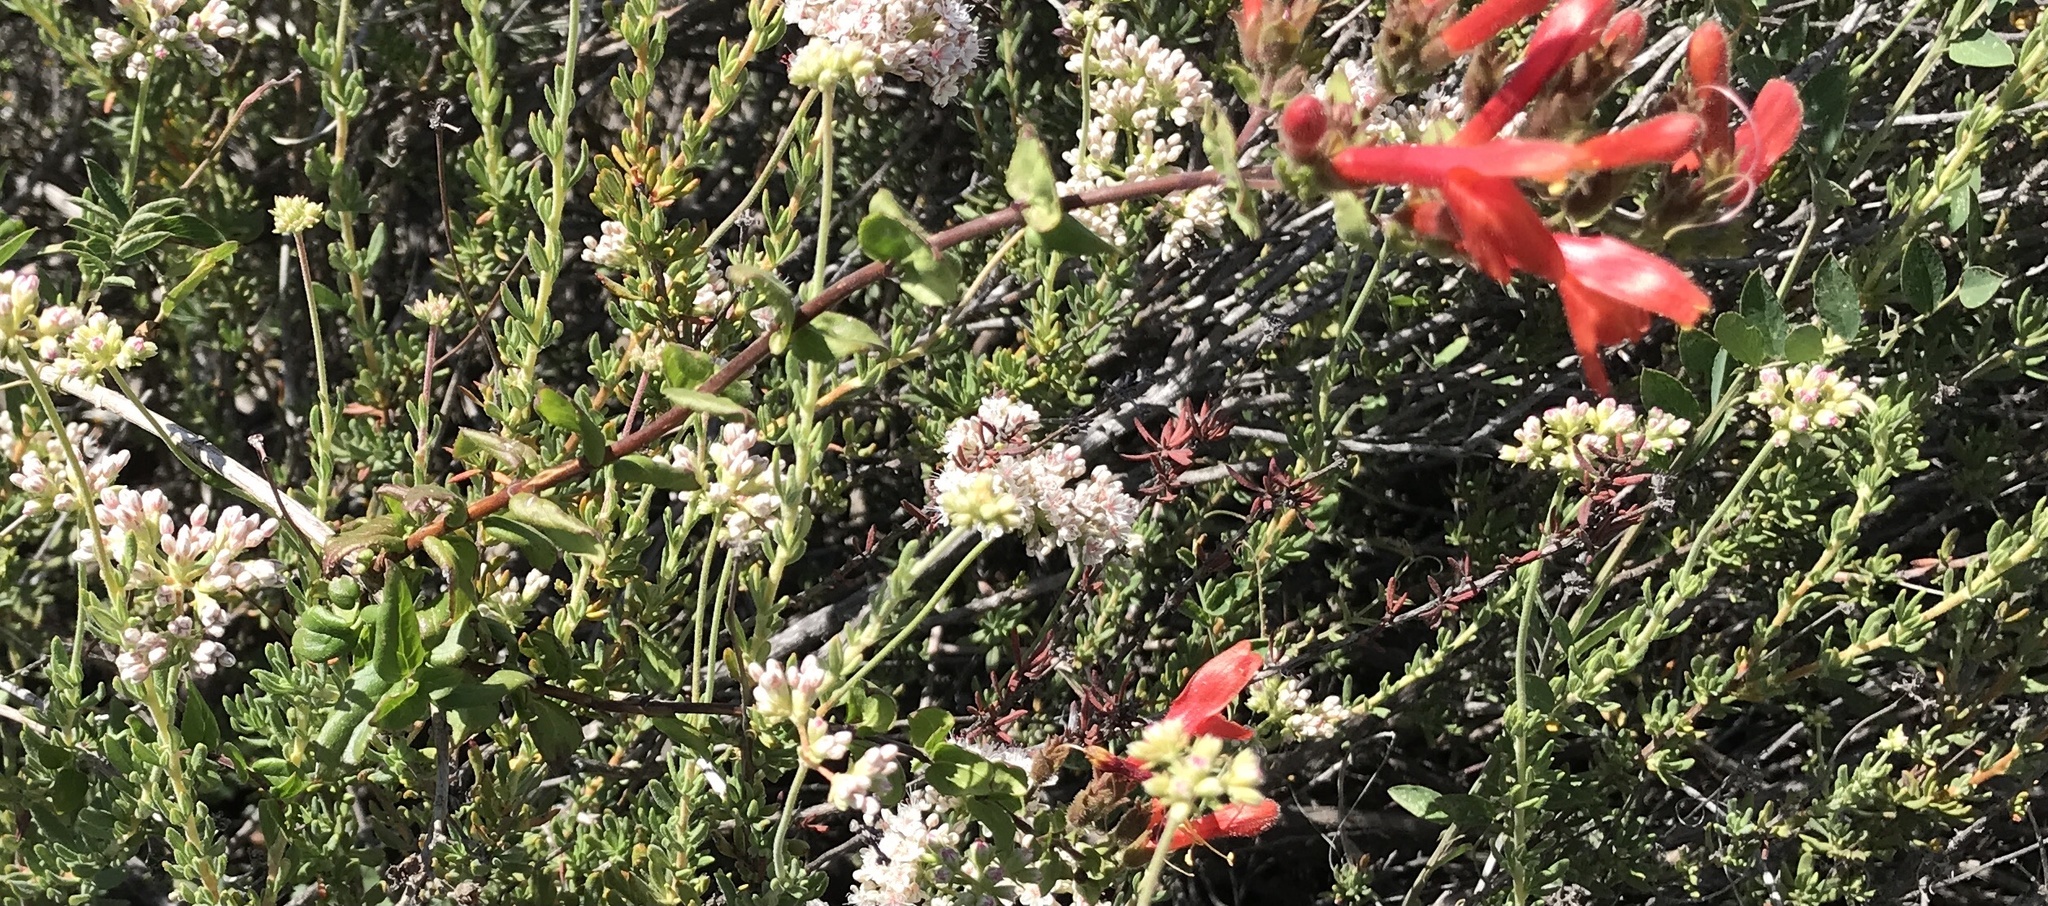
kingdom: Plantae
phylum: Tracheophyta
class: Magnoliopsida
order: Lamiales
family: Plantaginaceae
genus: Keckiella
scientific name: Keckiella cordifolia
